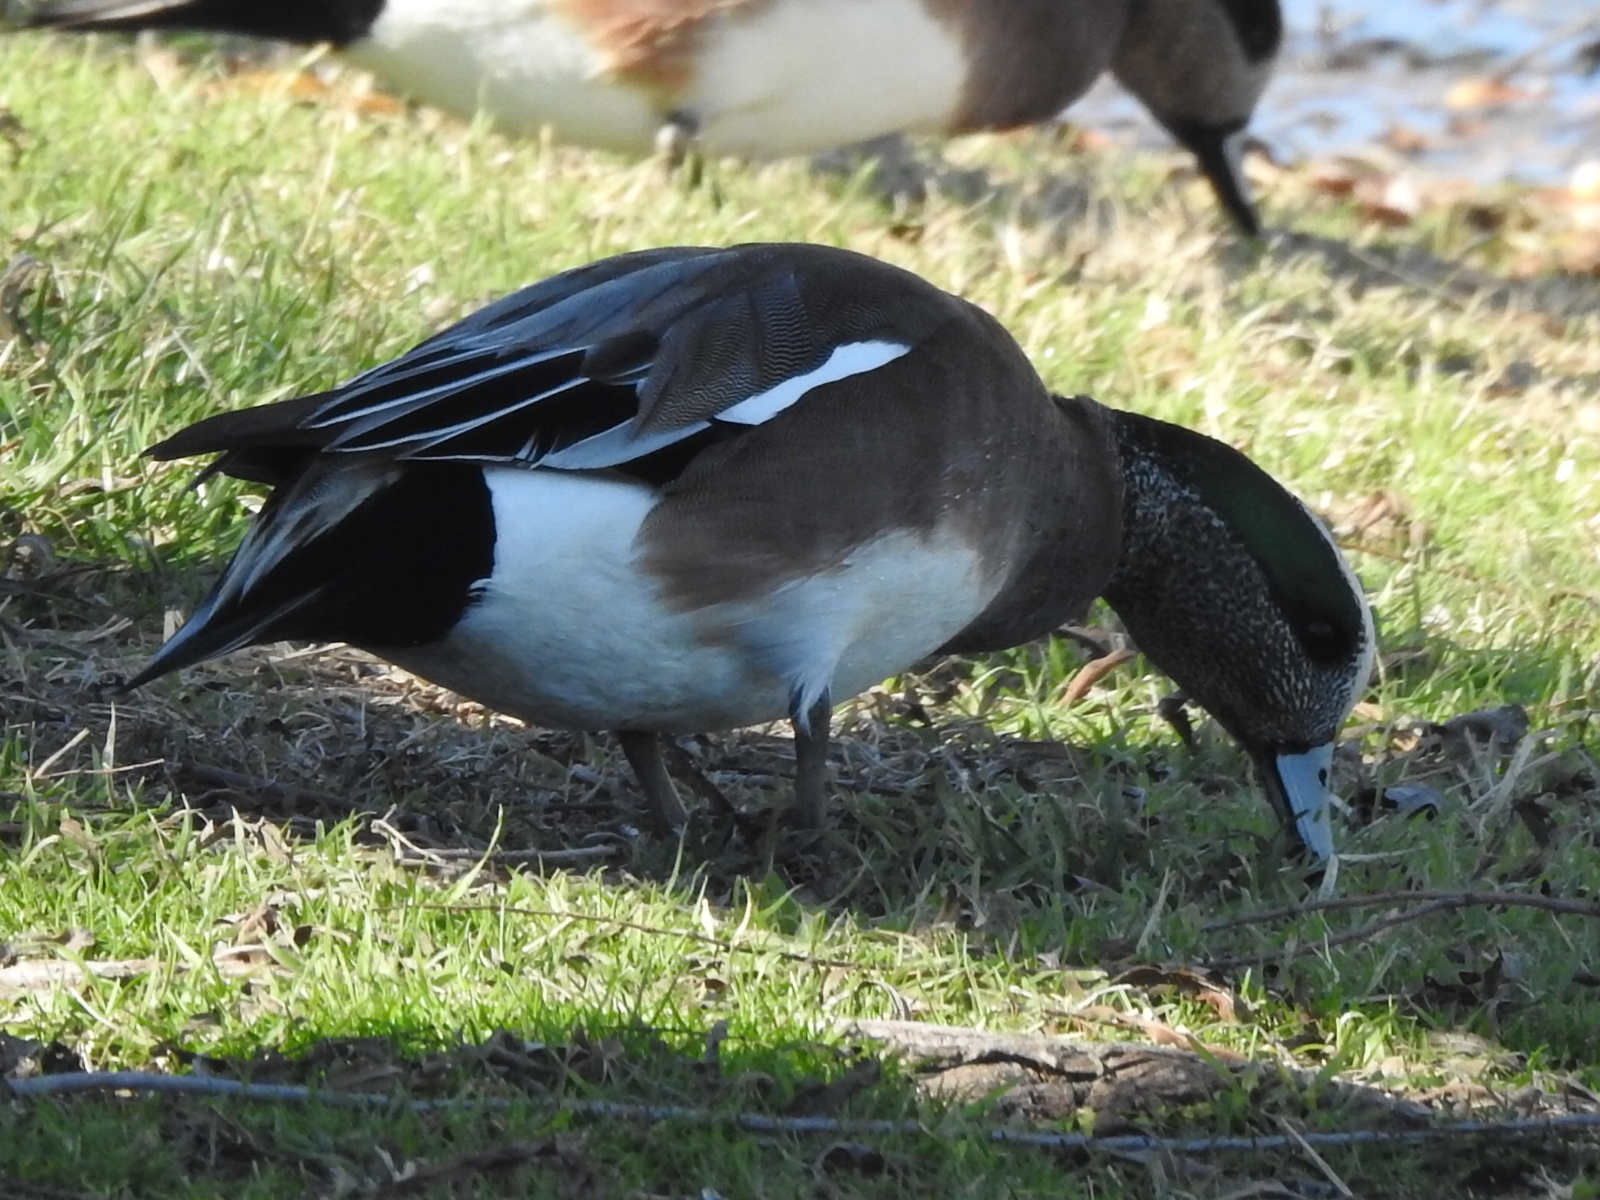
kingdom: Animalia
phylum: Chordata
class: Aves
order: Anseriformes
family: Anatidae
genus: Mareca
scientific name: Mareca americana
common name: American wigeon
